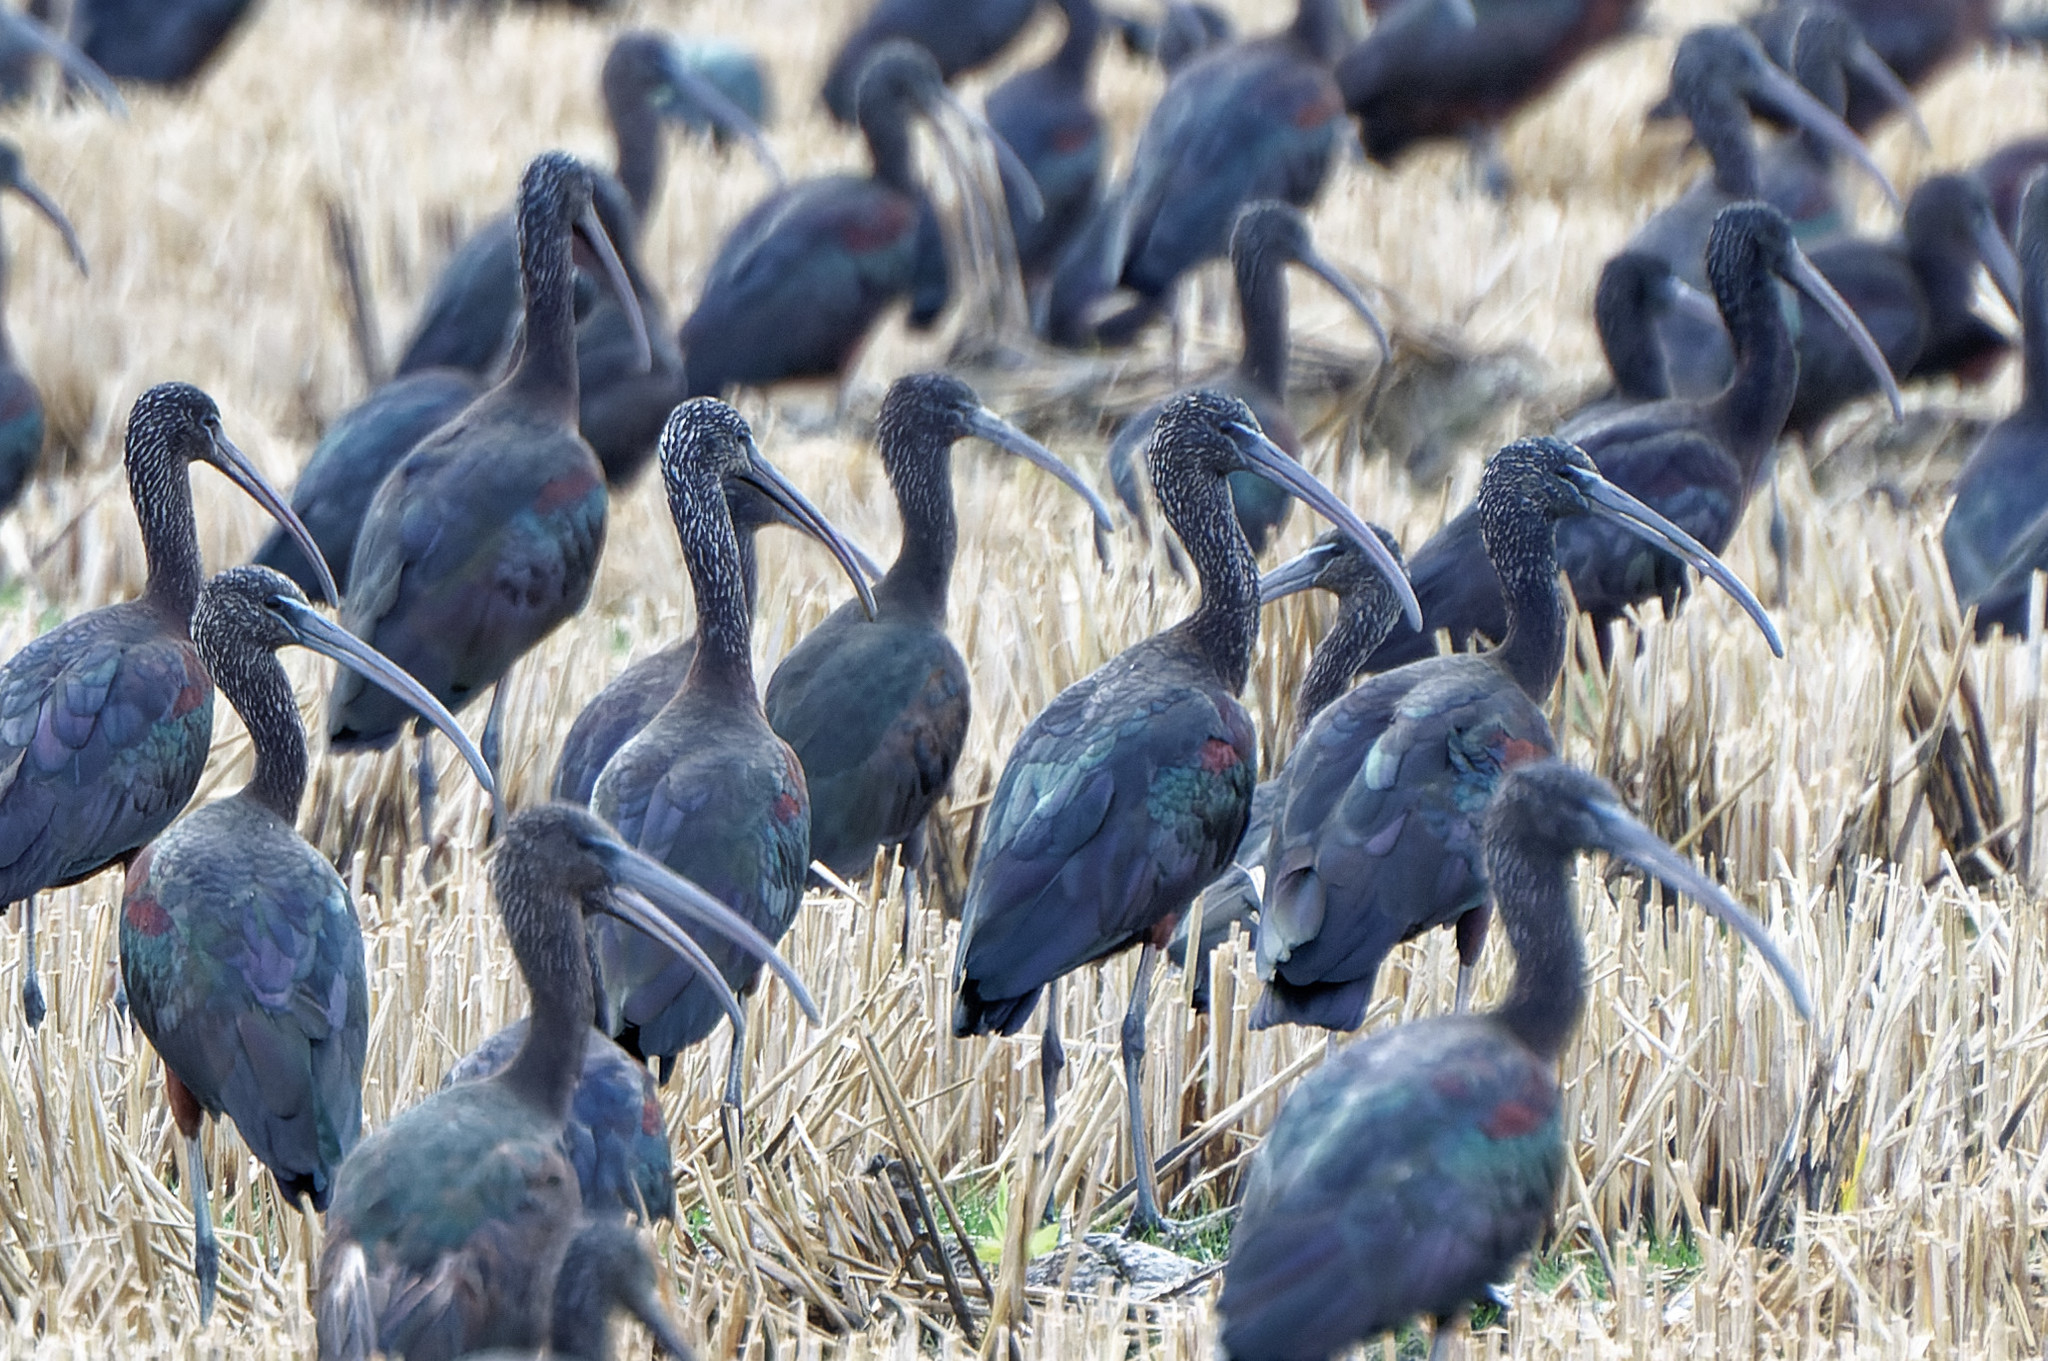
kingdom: Animalia
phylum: Chordata
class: Aves
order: Pelecaniformes
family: Threskiornithidae
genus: Plegadis
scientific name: Plegadis falcinellus
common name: Glossy ibis
